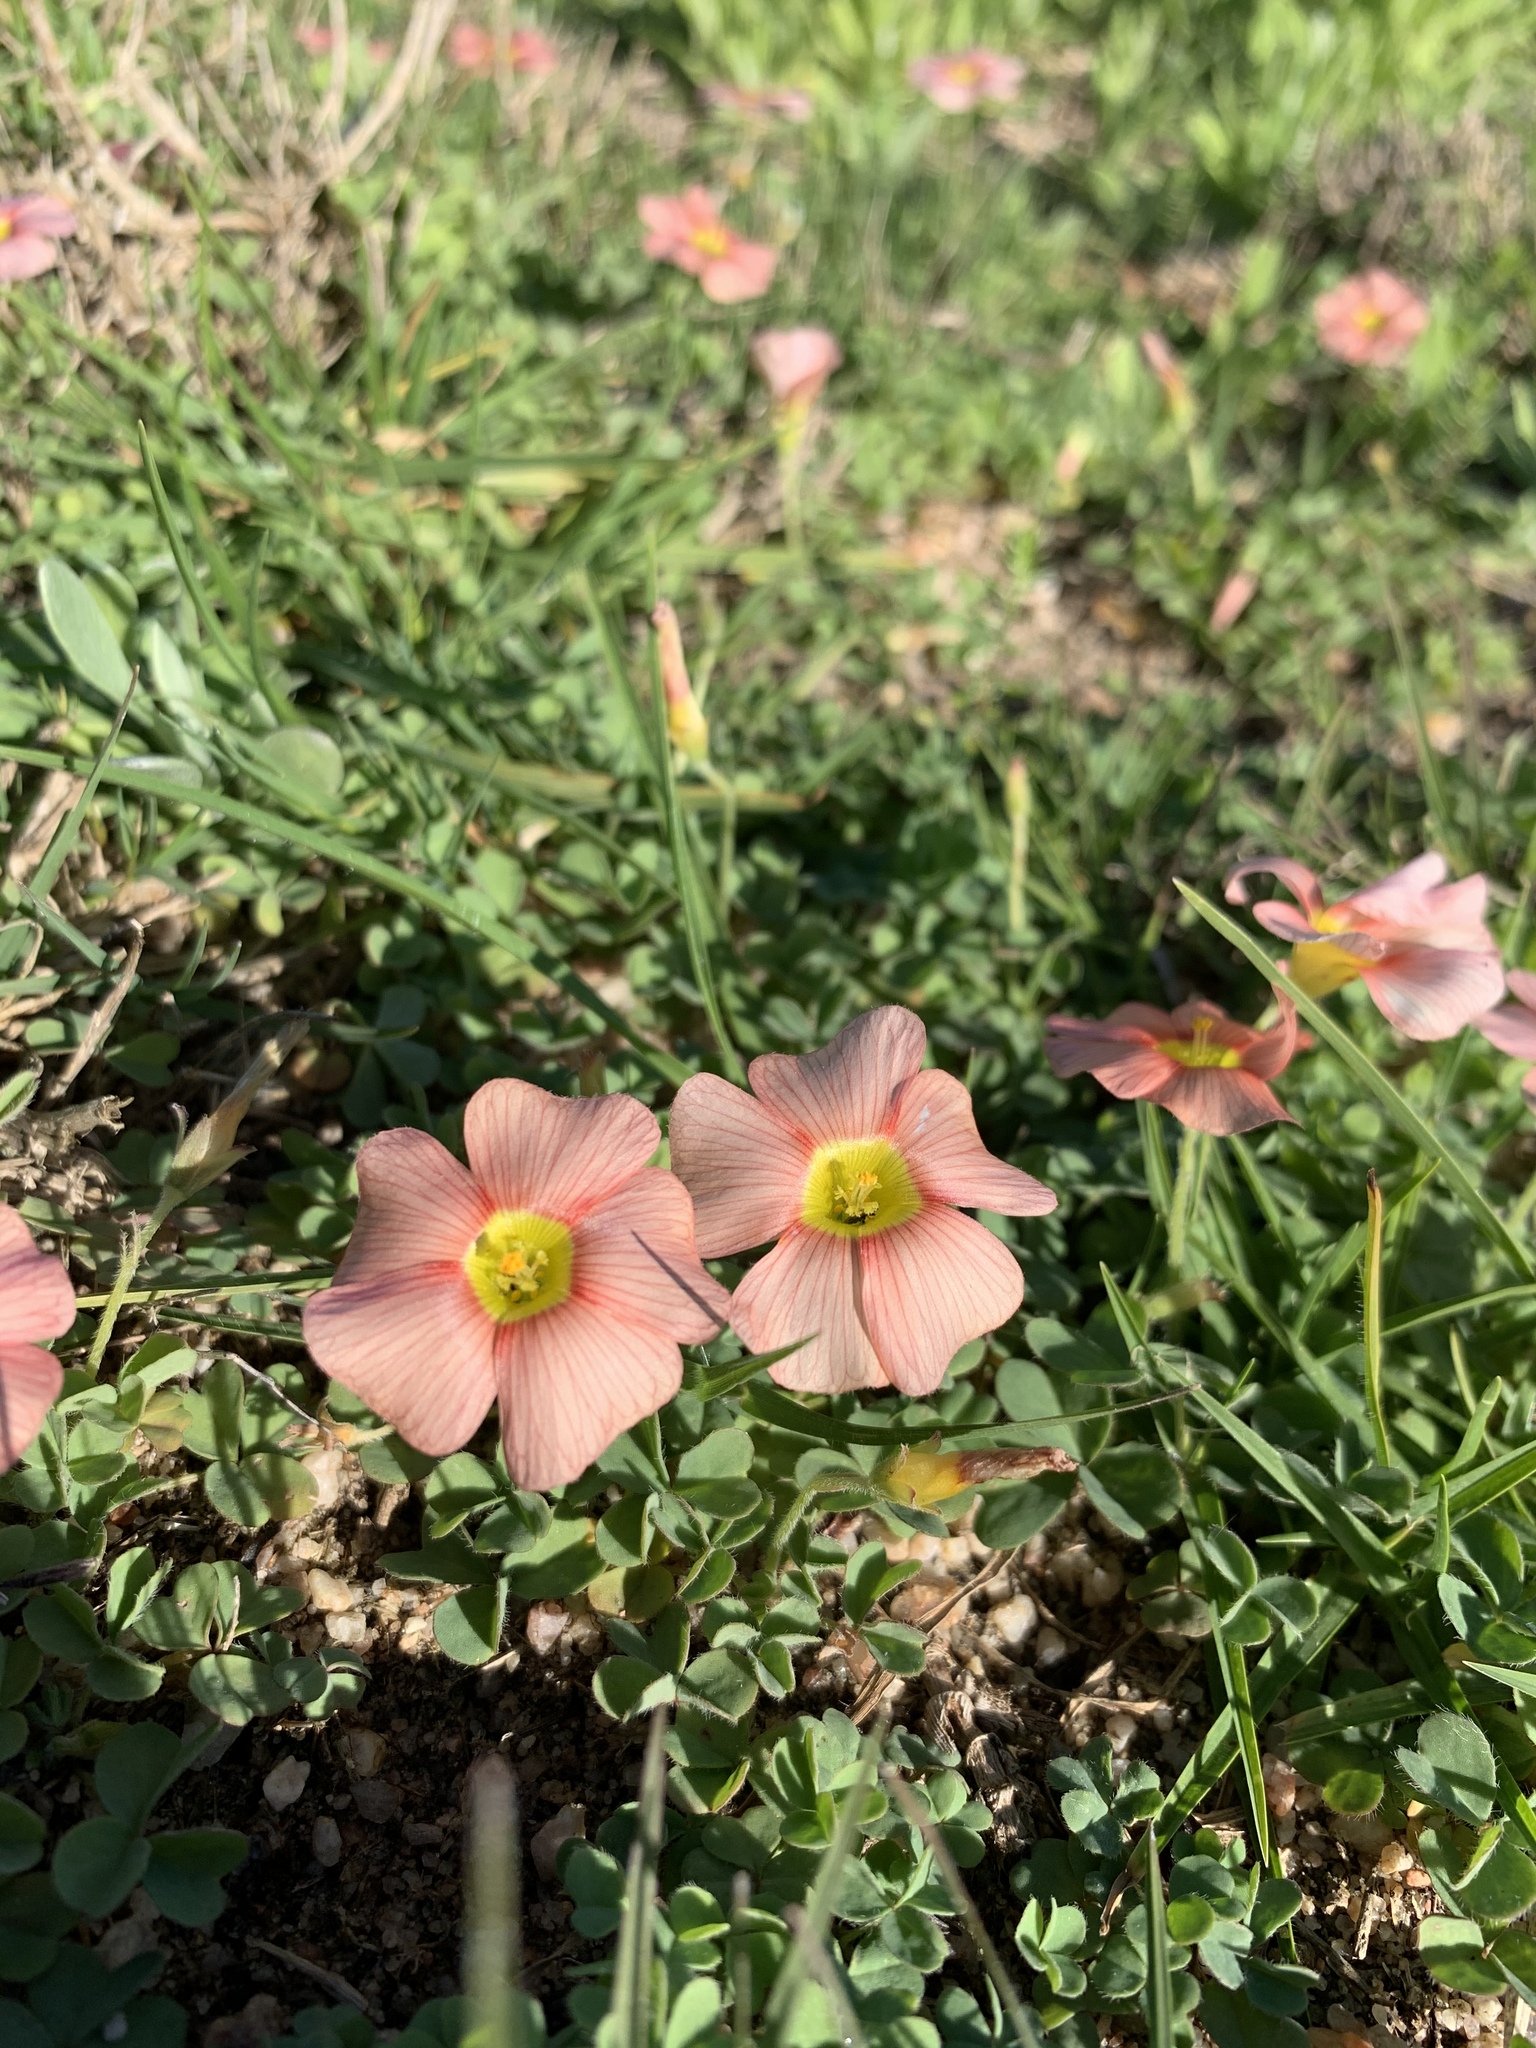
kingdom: Plantae
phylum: Tracheophyta
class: Magnoliopsida
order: Oxalidales
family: Oxalidaceae
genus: Oxalis
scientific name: Oxalis obtusa
